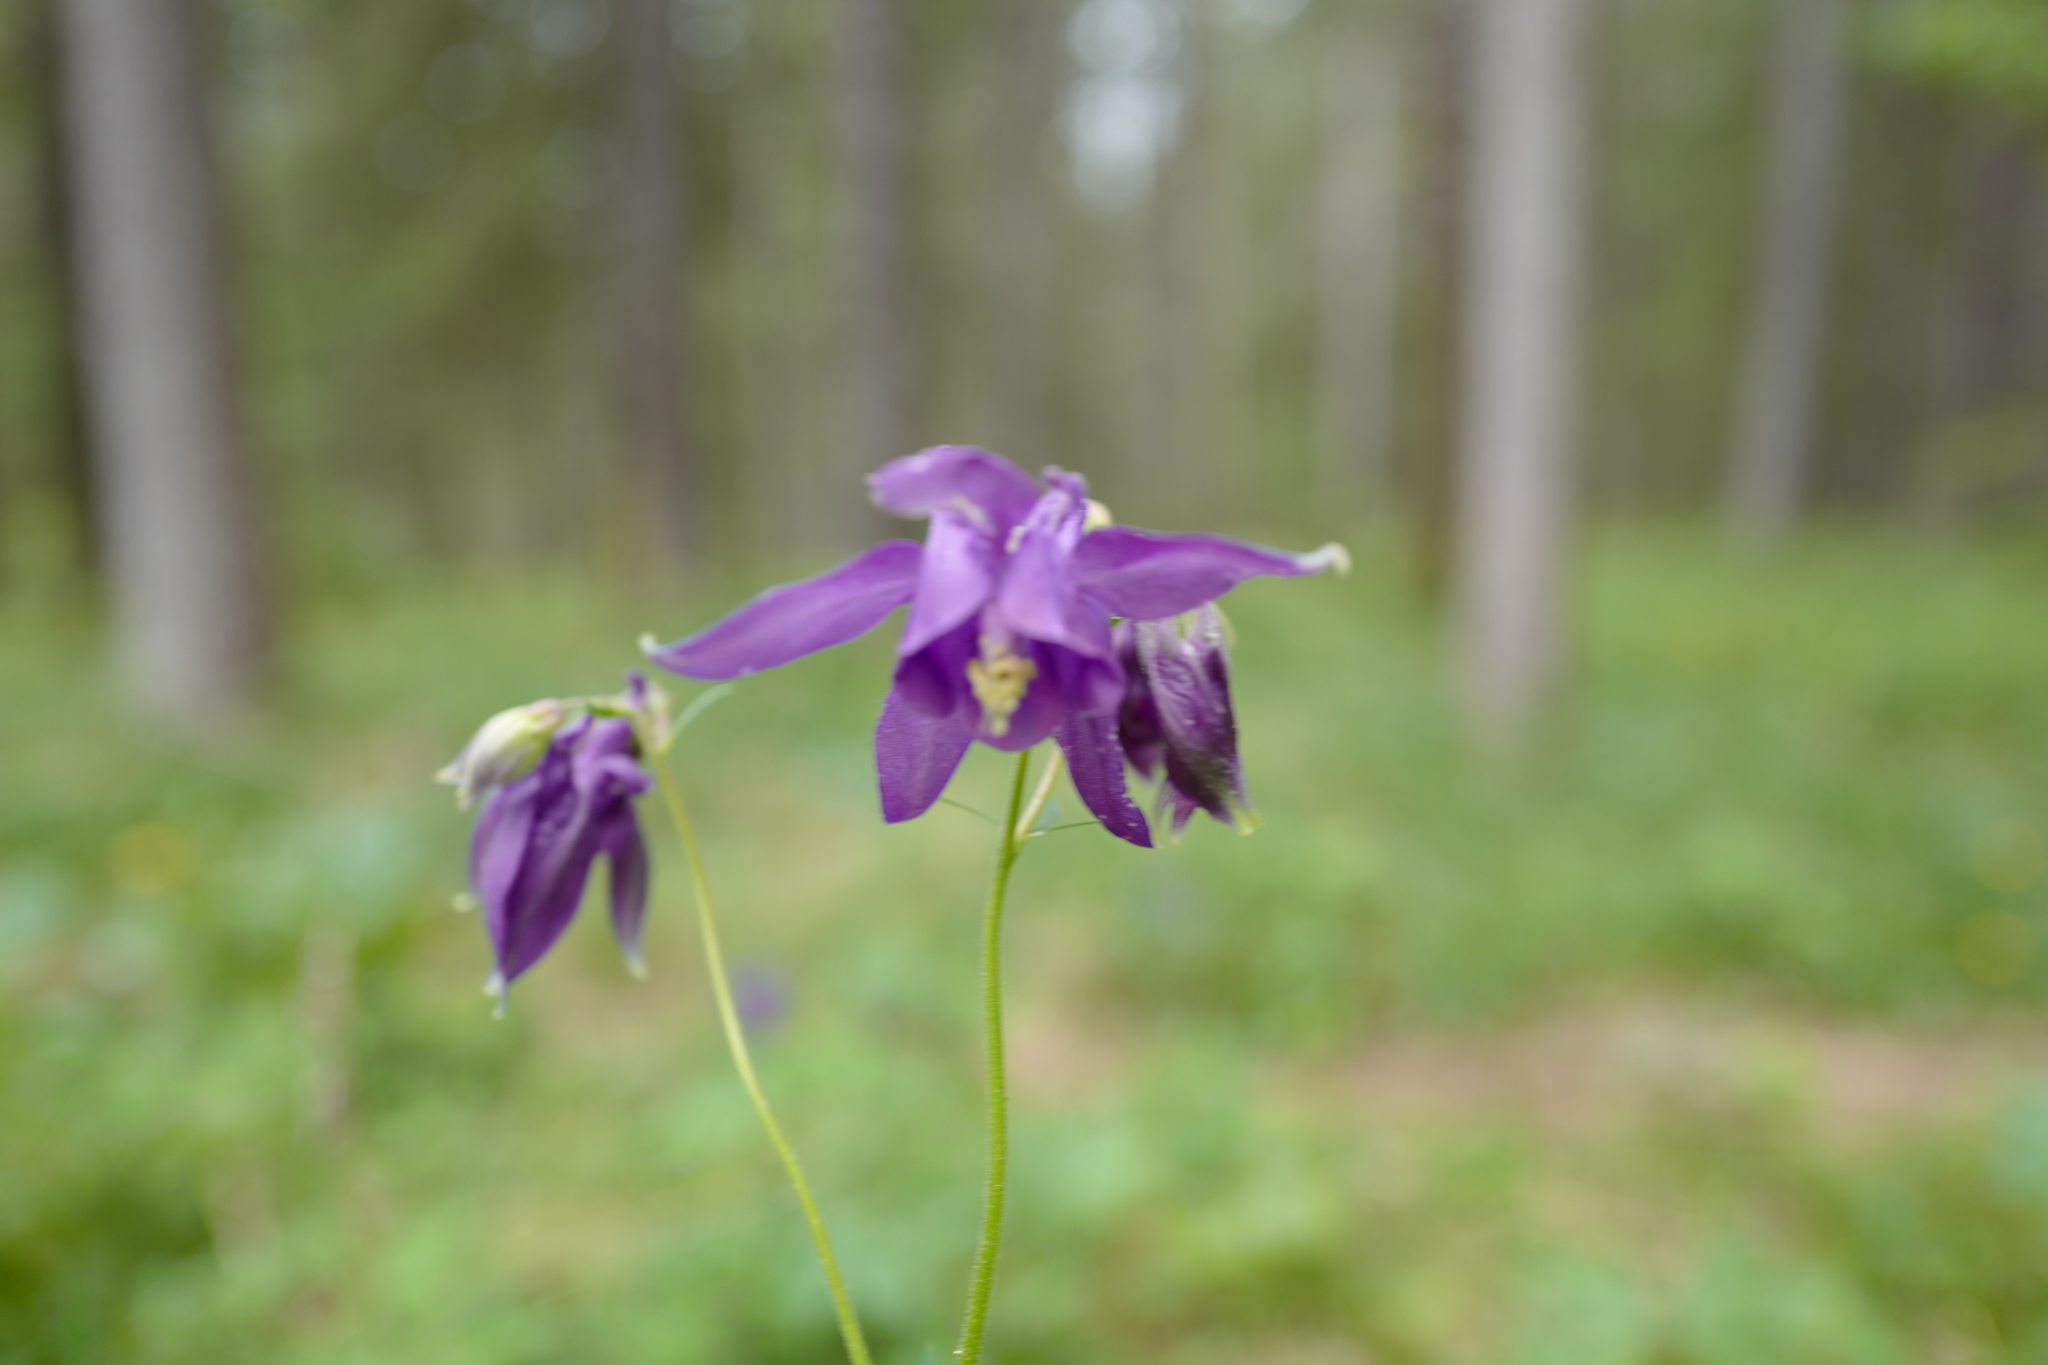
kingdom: Plantae
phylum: Tracheophyta
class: Magnoliopsida
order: Ranunculales
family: Ranunculaceae
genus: Aquilegia
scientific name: Aquilegia vulgaris
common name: Columbine
